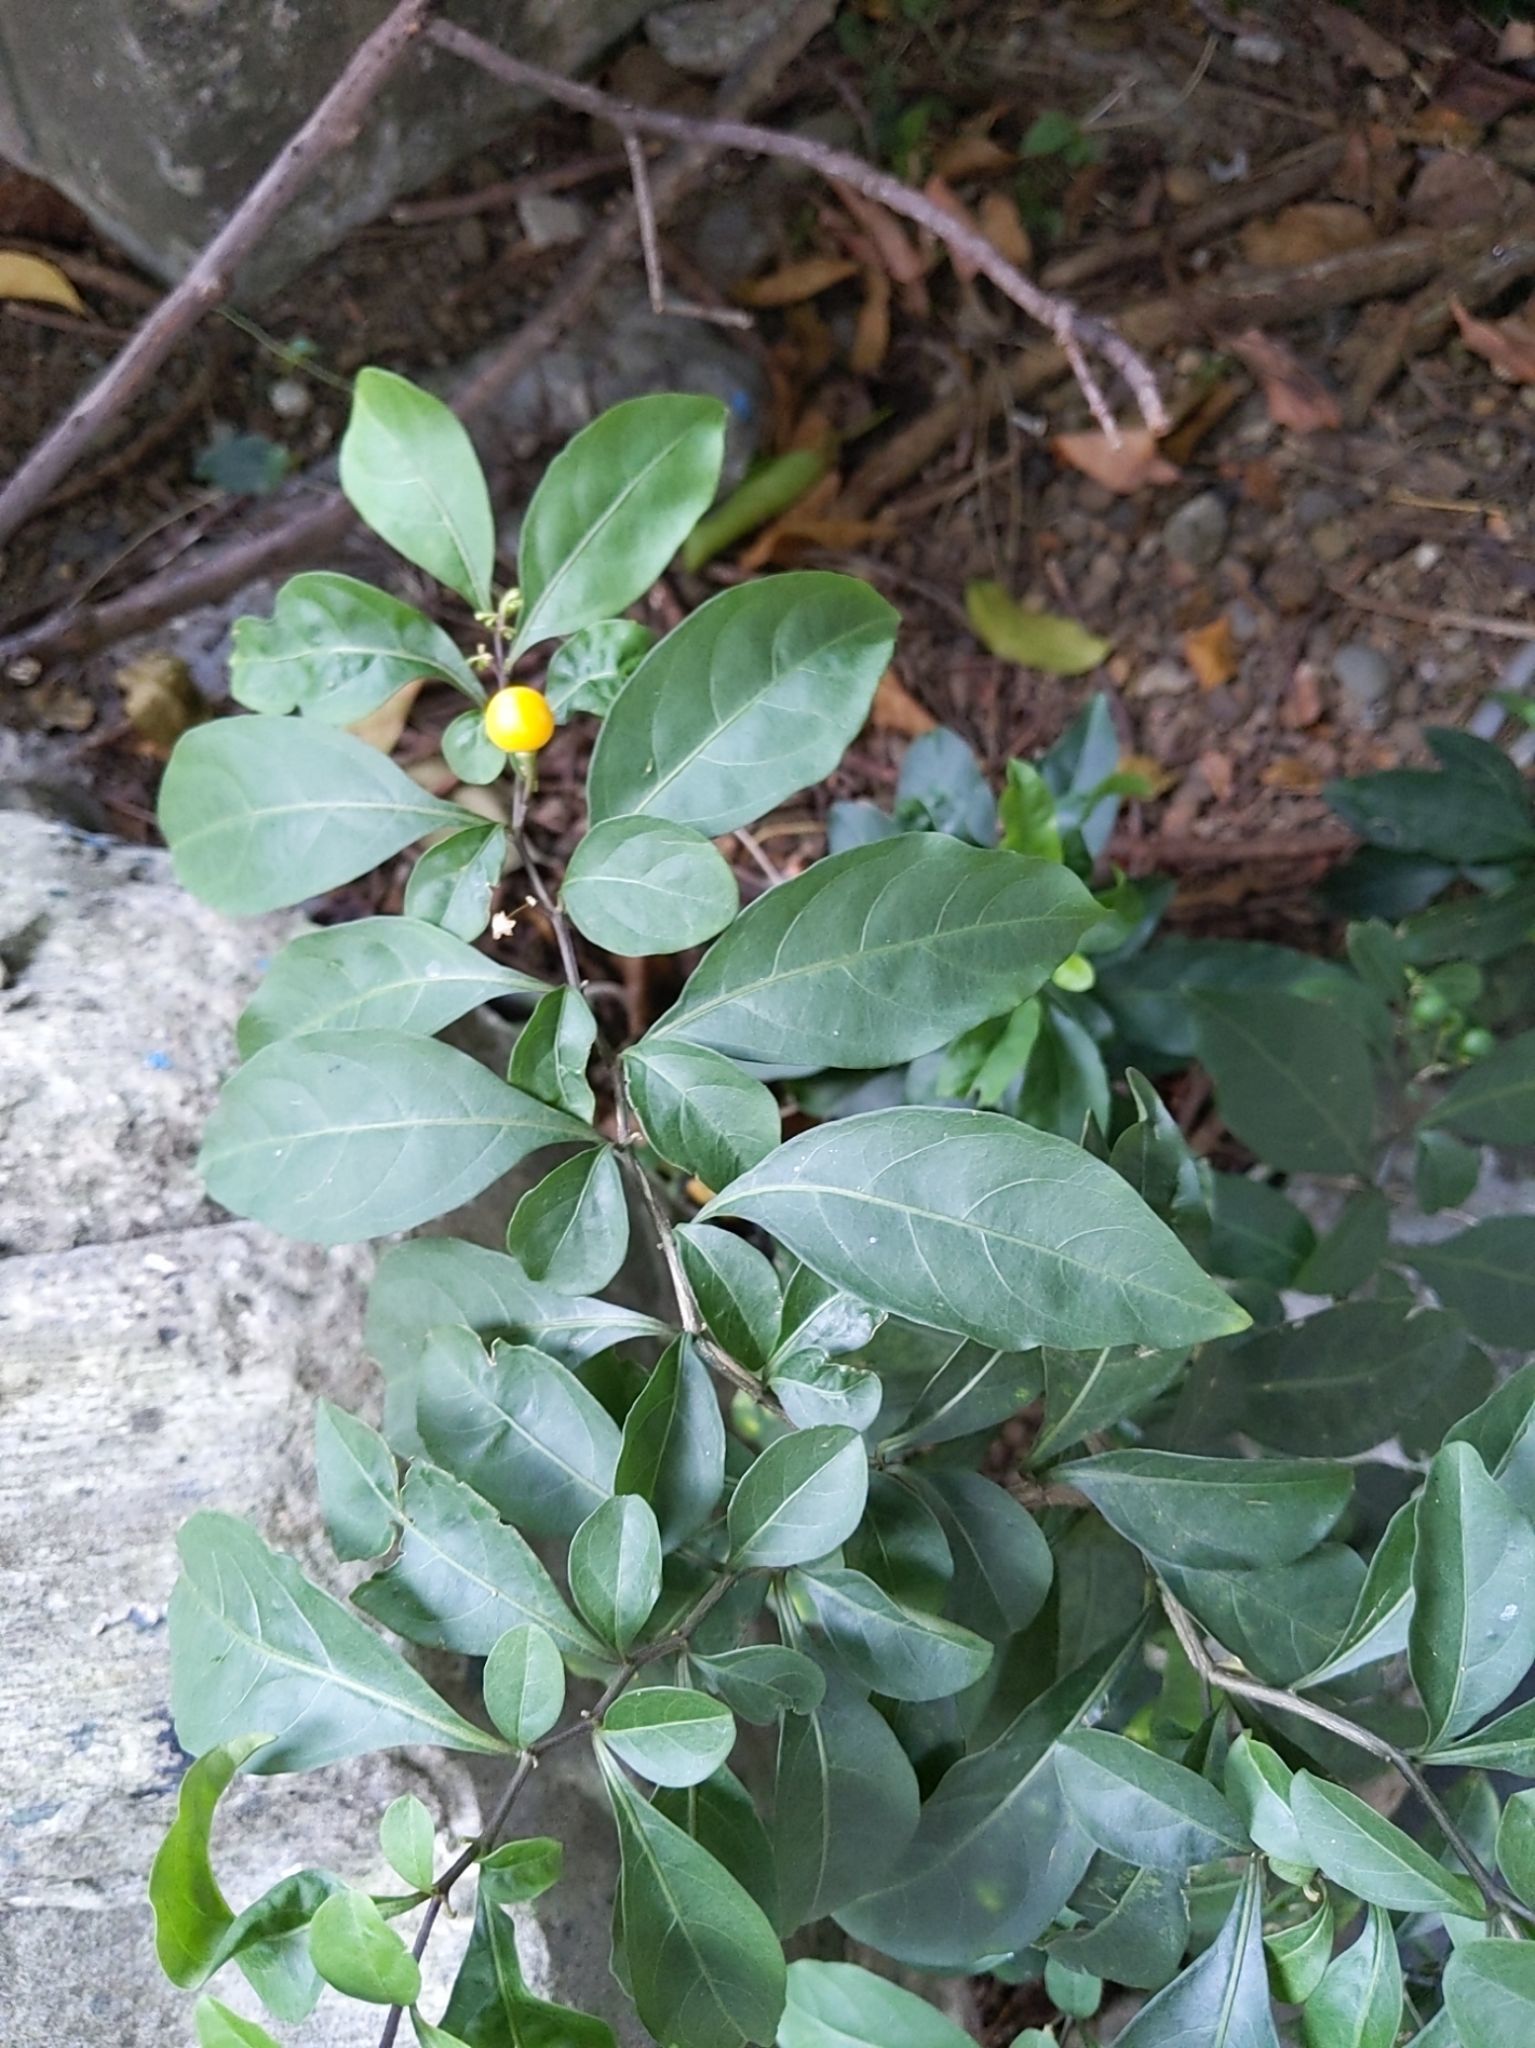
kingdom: Plantae
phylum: Tracheophyta
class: Magnoliopsida
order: Solanales
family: Solanaceae
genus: Solanum
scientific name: Solanum diphyllum
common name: Twoleaf nightshade
